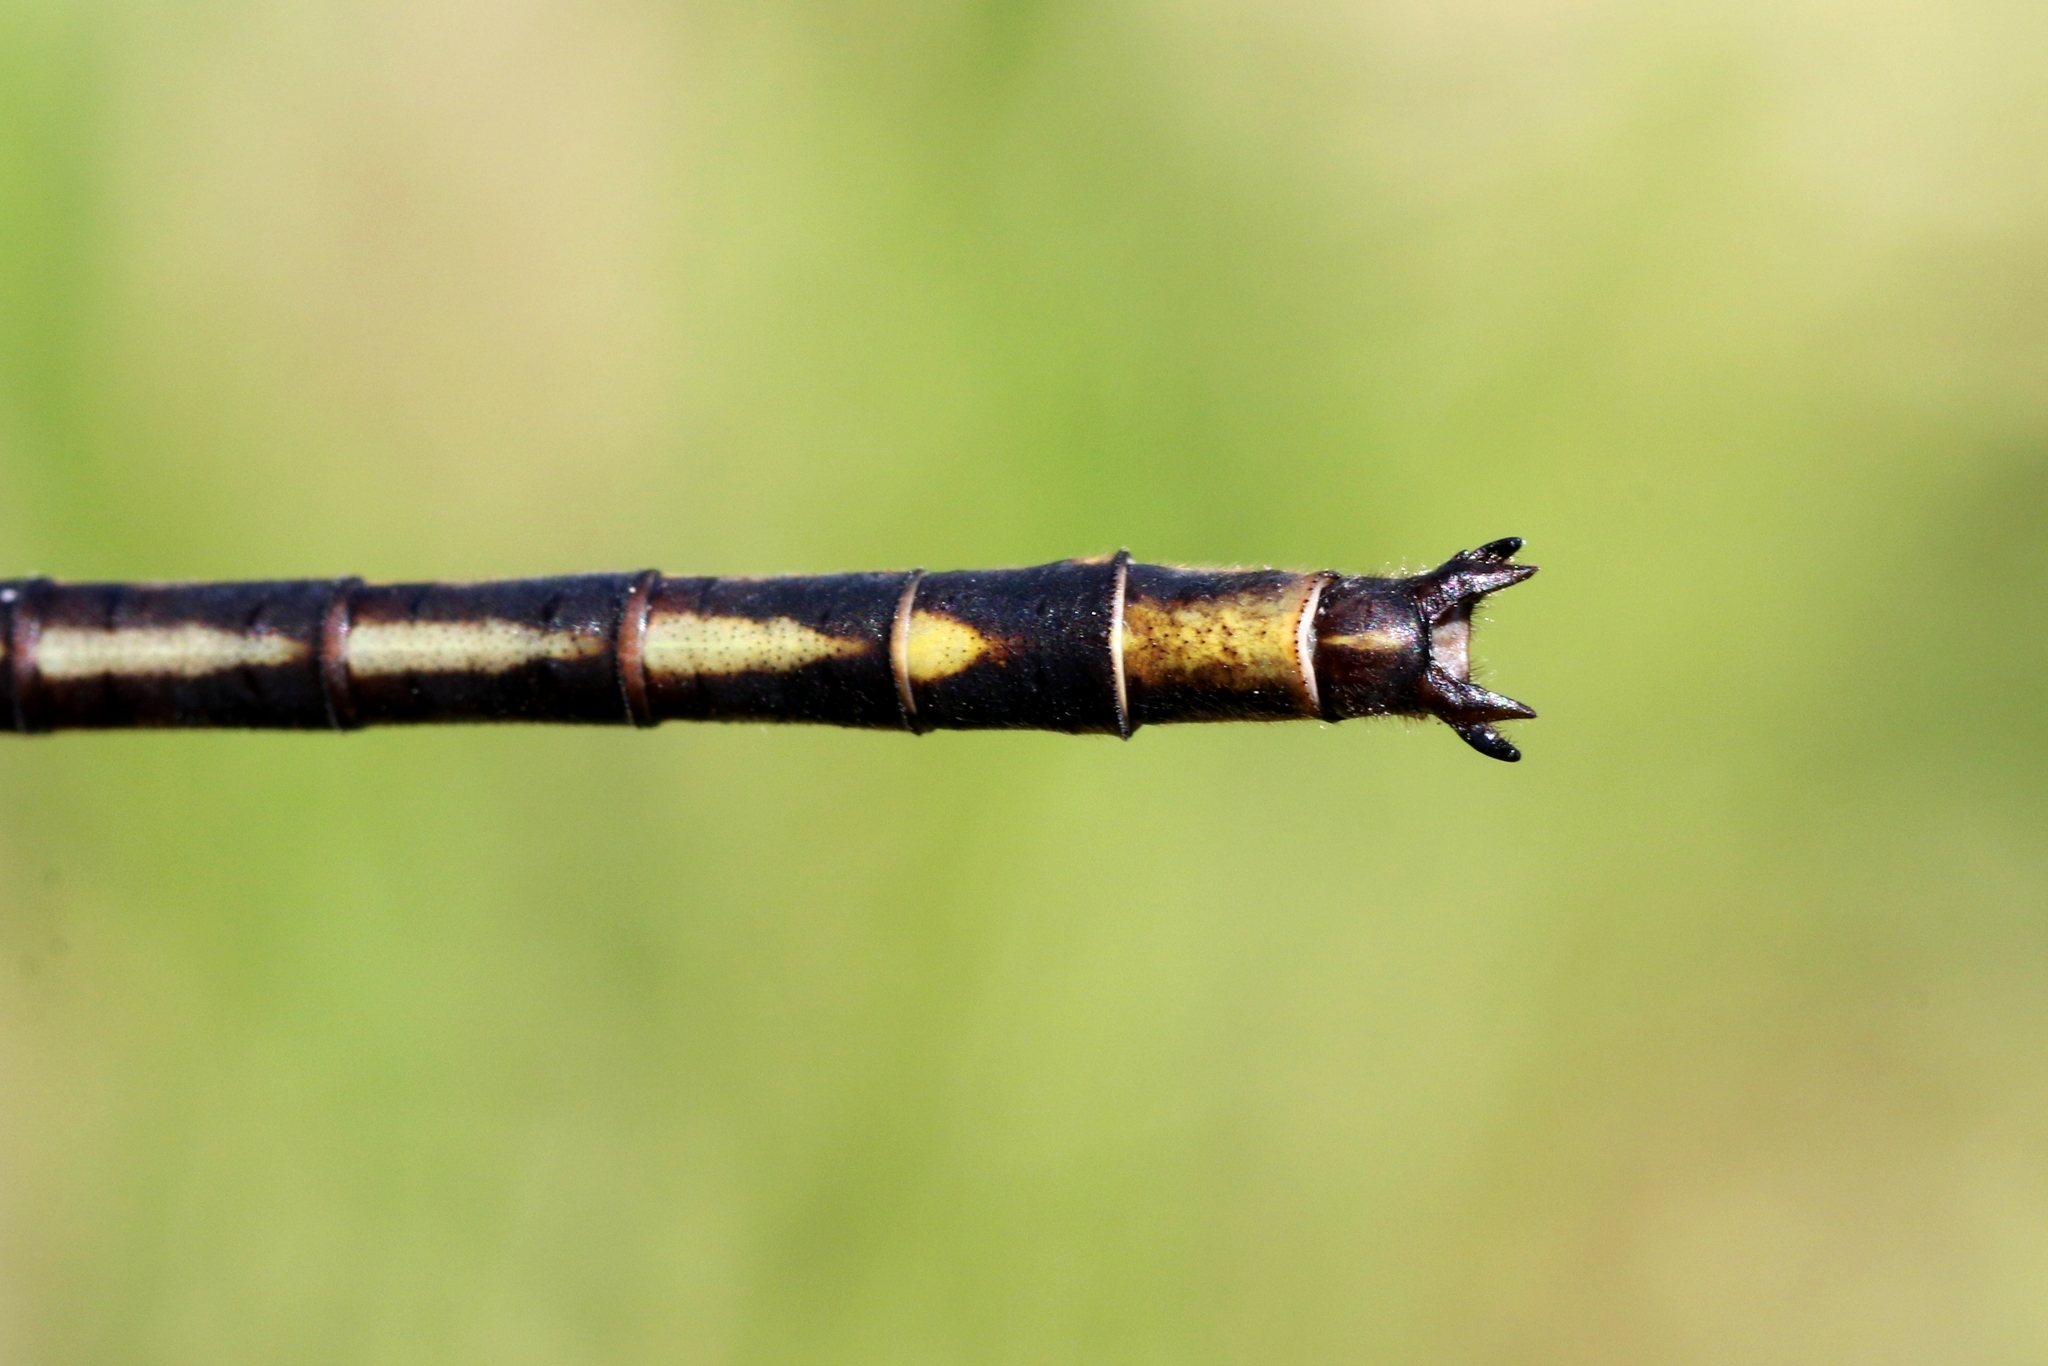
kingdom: Animalia
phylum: Arthropoda
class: Insecta
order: Odonata
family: Gomphidae
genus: Phanogomphus
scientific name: Phanogomphus spicatus
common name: Dusky clubtail
